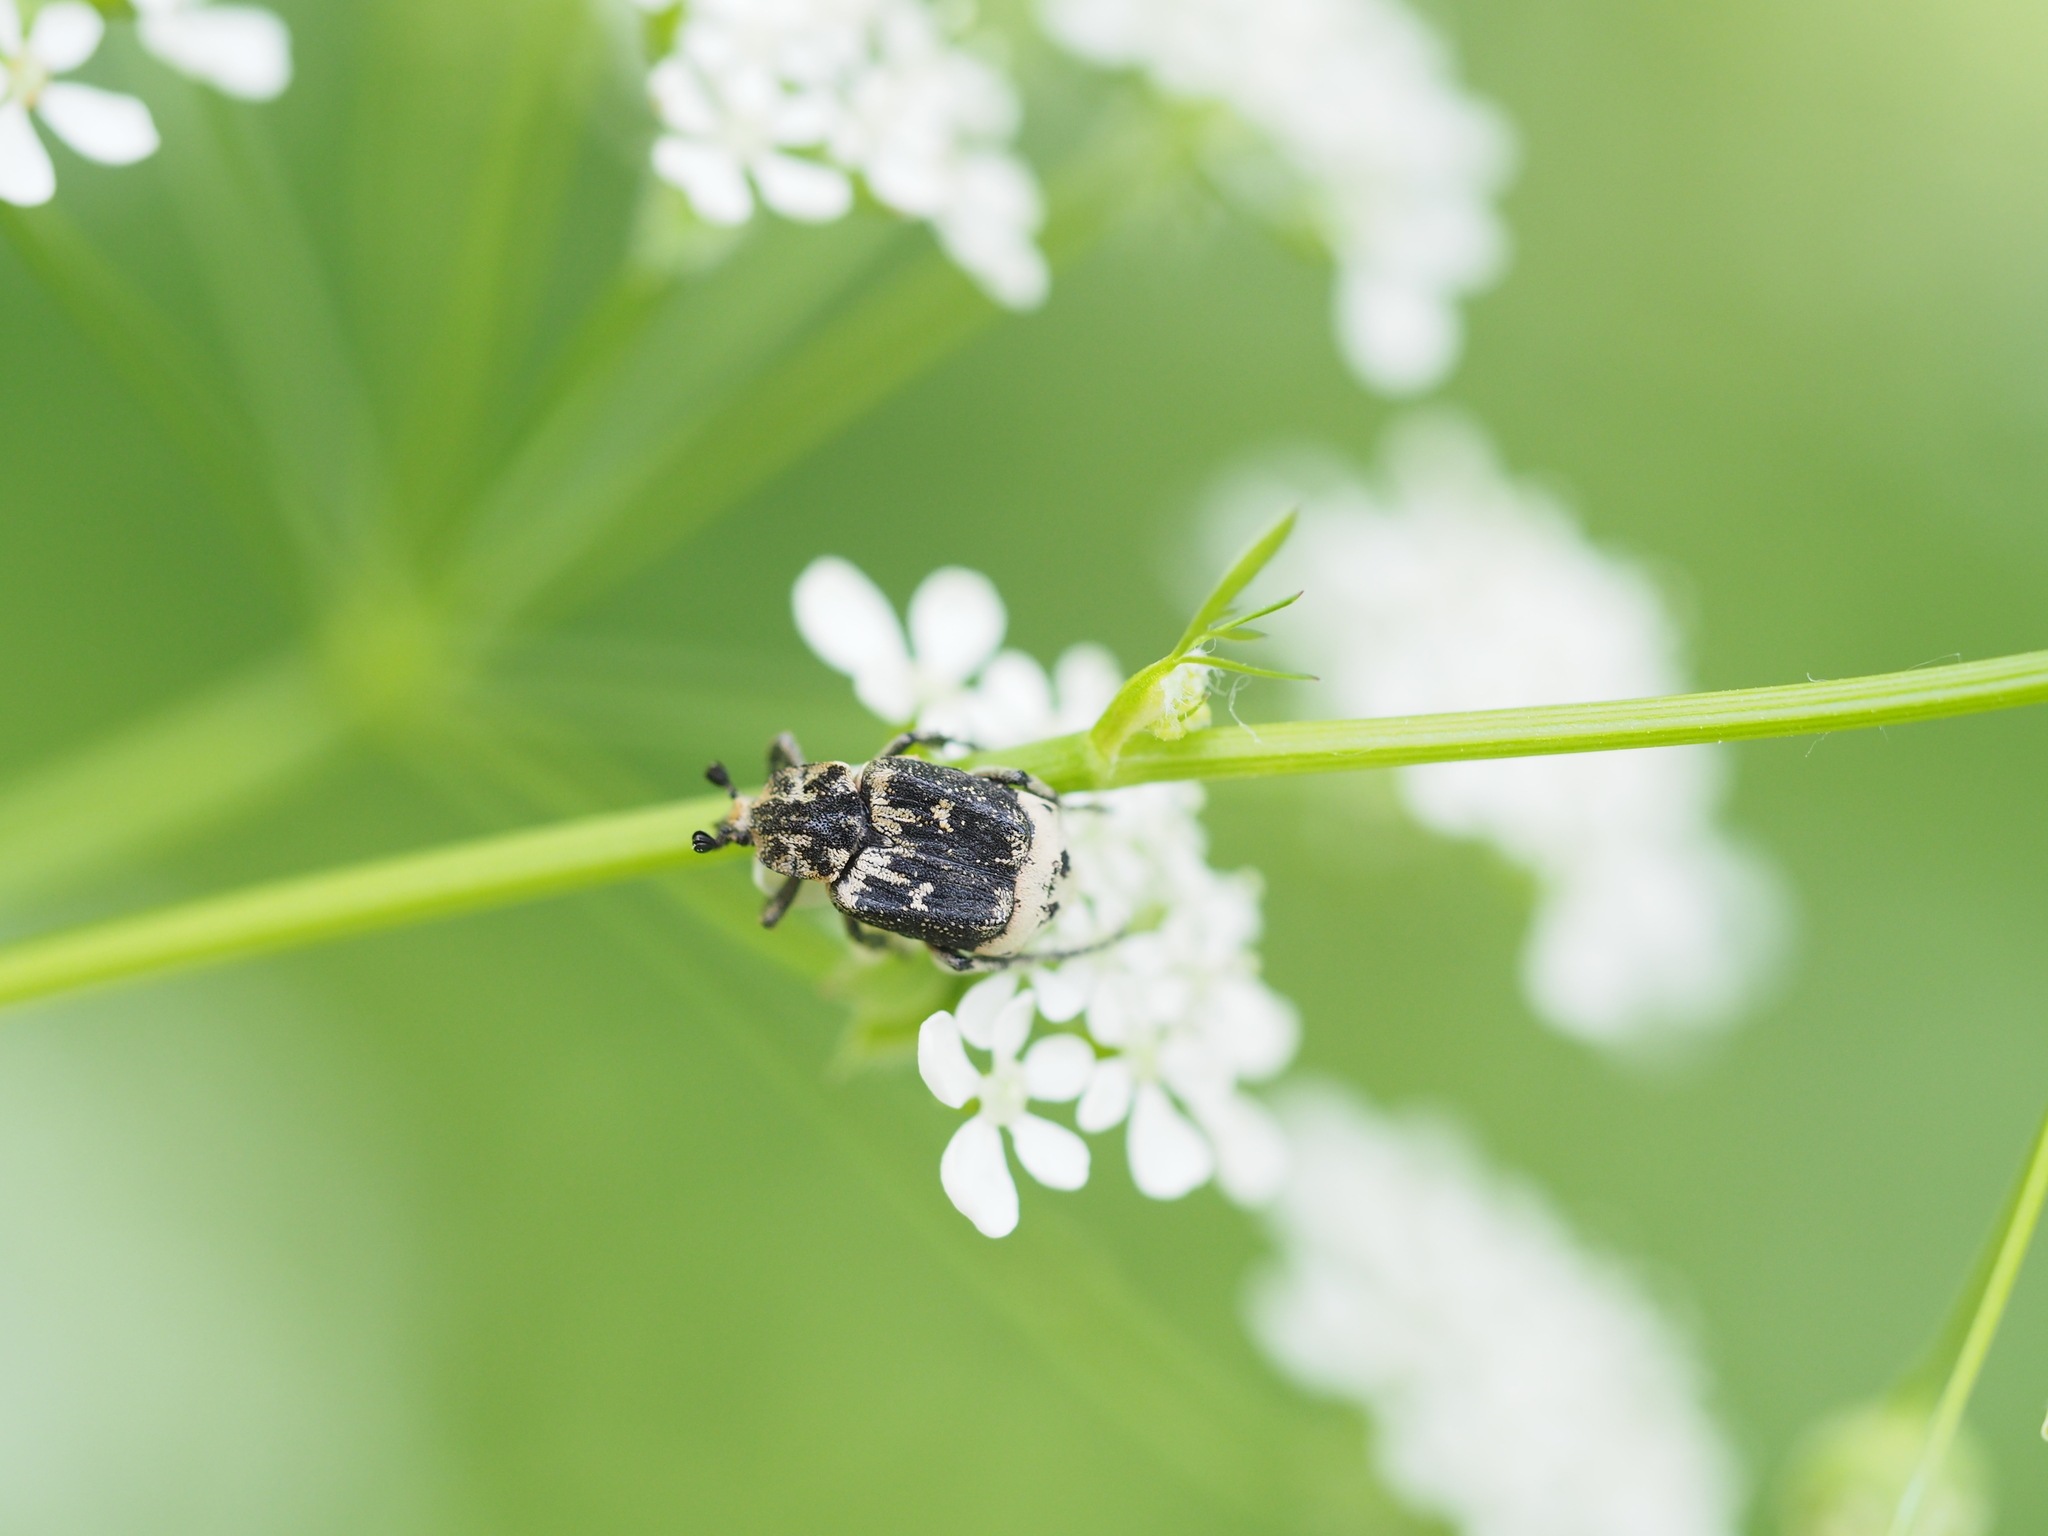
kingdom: Animalia
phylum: Arthropoda
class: Insecta
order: Coleoptera
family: Scarabaeidae
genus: Valgus
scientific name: Valgus hemipterus
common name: Bug flower chafer
